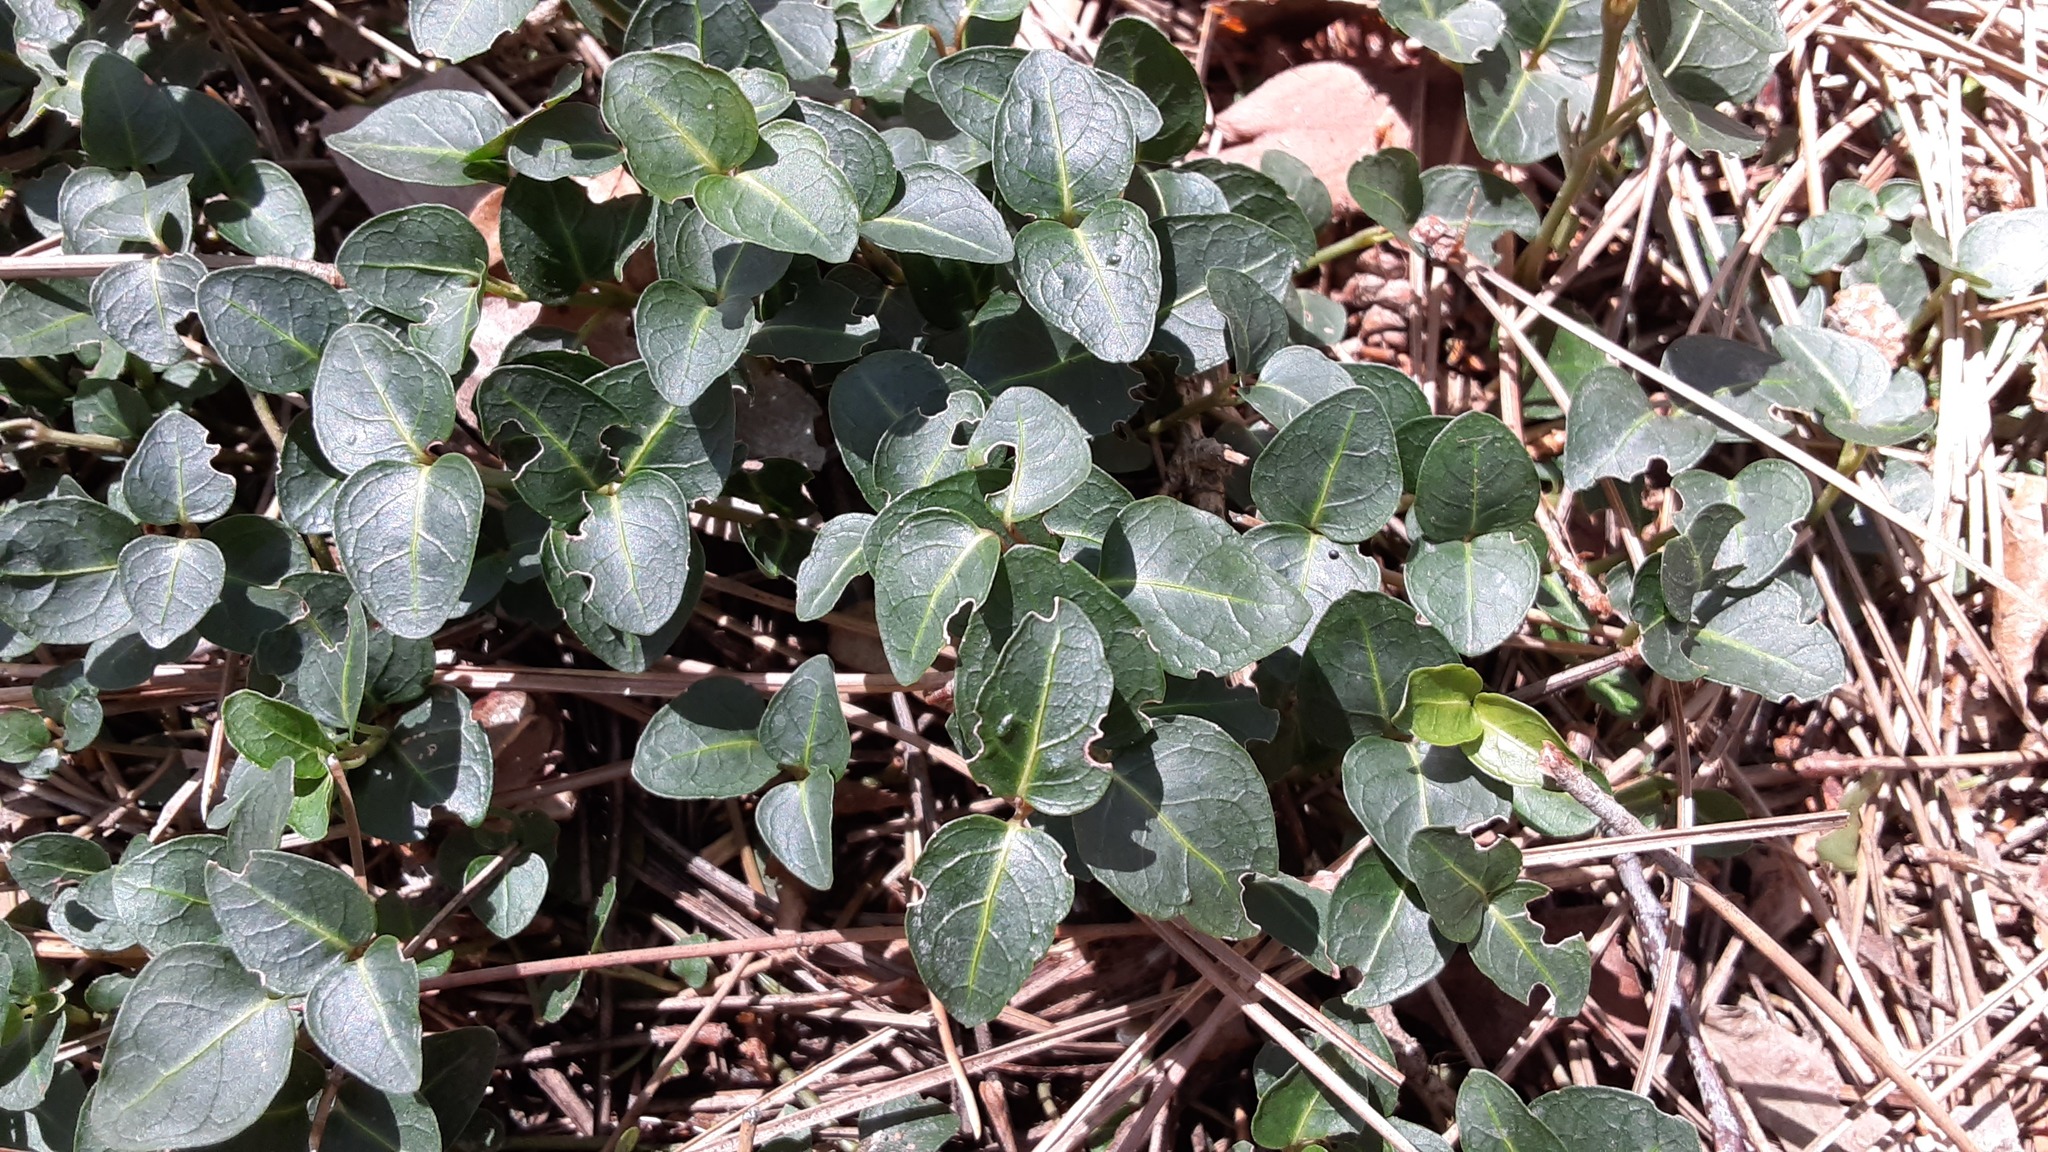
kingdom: Plantae
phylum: Tracheophyta
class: Magnoliopsida
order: Gentianales
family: Rubiaceae
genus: Mitchella
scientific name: Mitchella repens
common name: Partridge-berry
